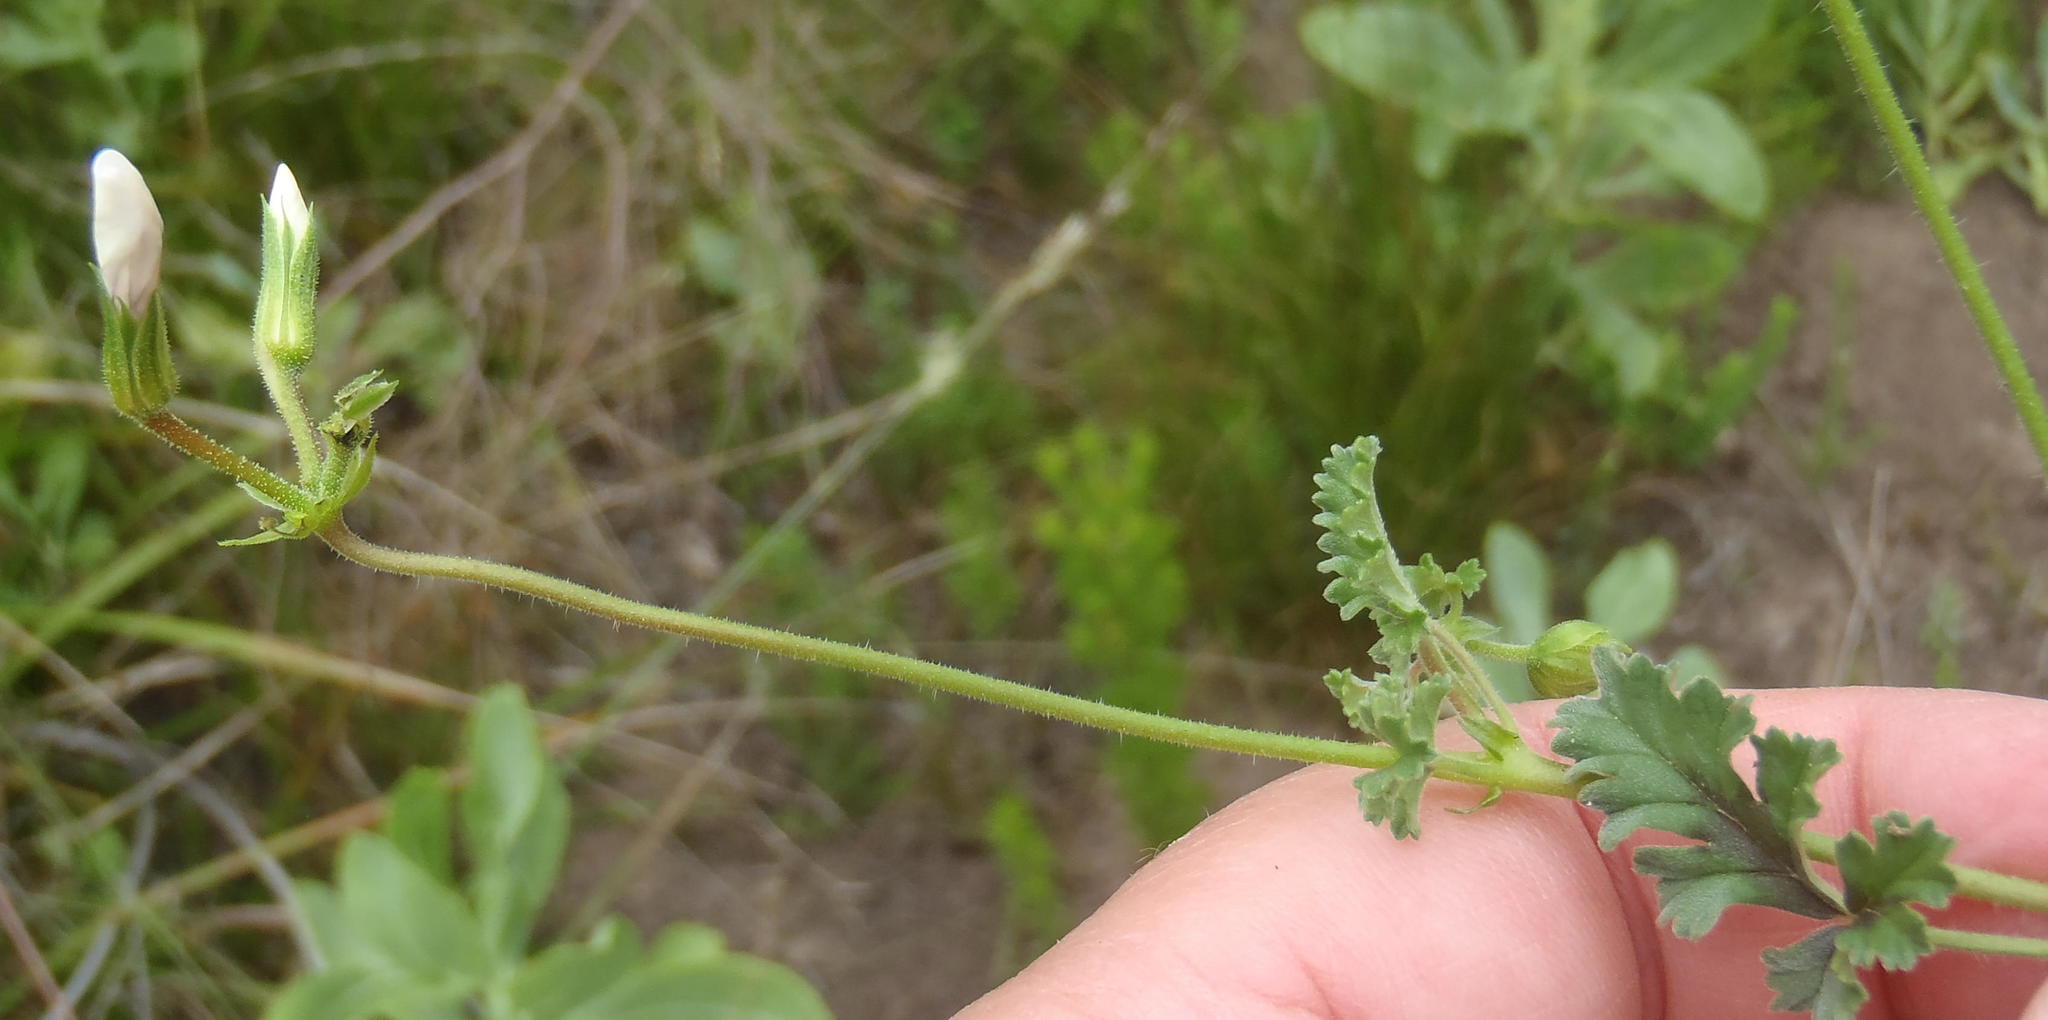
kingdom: Plantae
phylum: Tracheophyta
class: Magnoliopsida
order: Geraniales
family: Geraniaceae
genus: Pelargonium
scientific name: Pelargonium candicans
